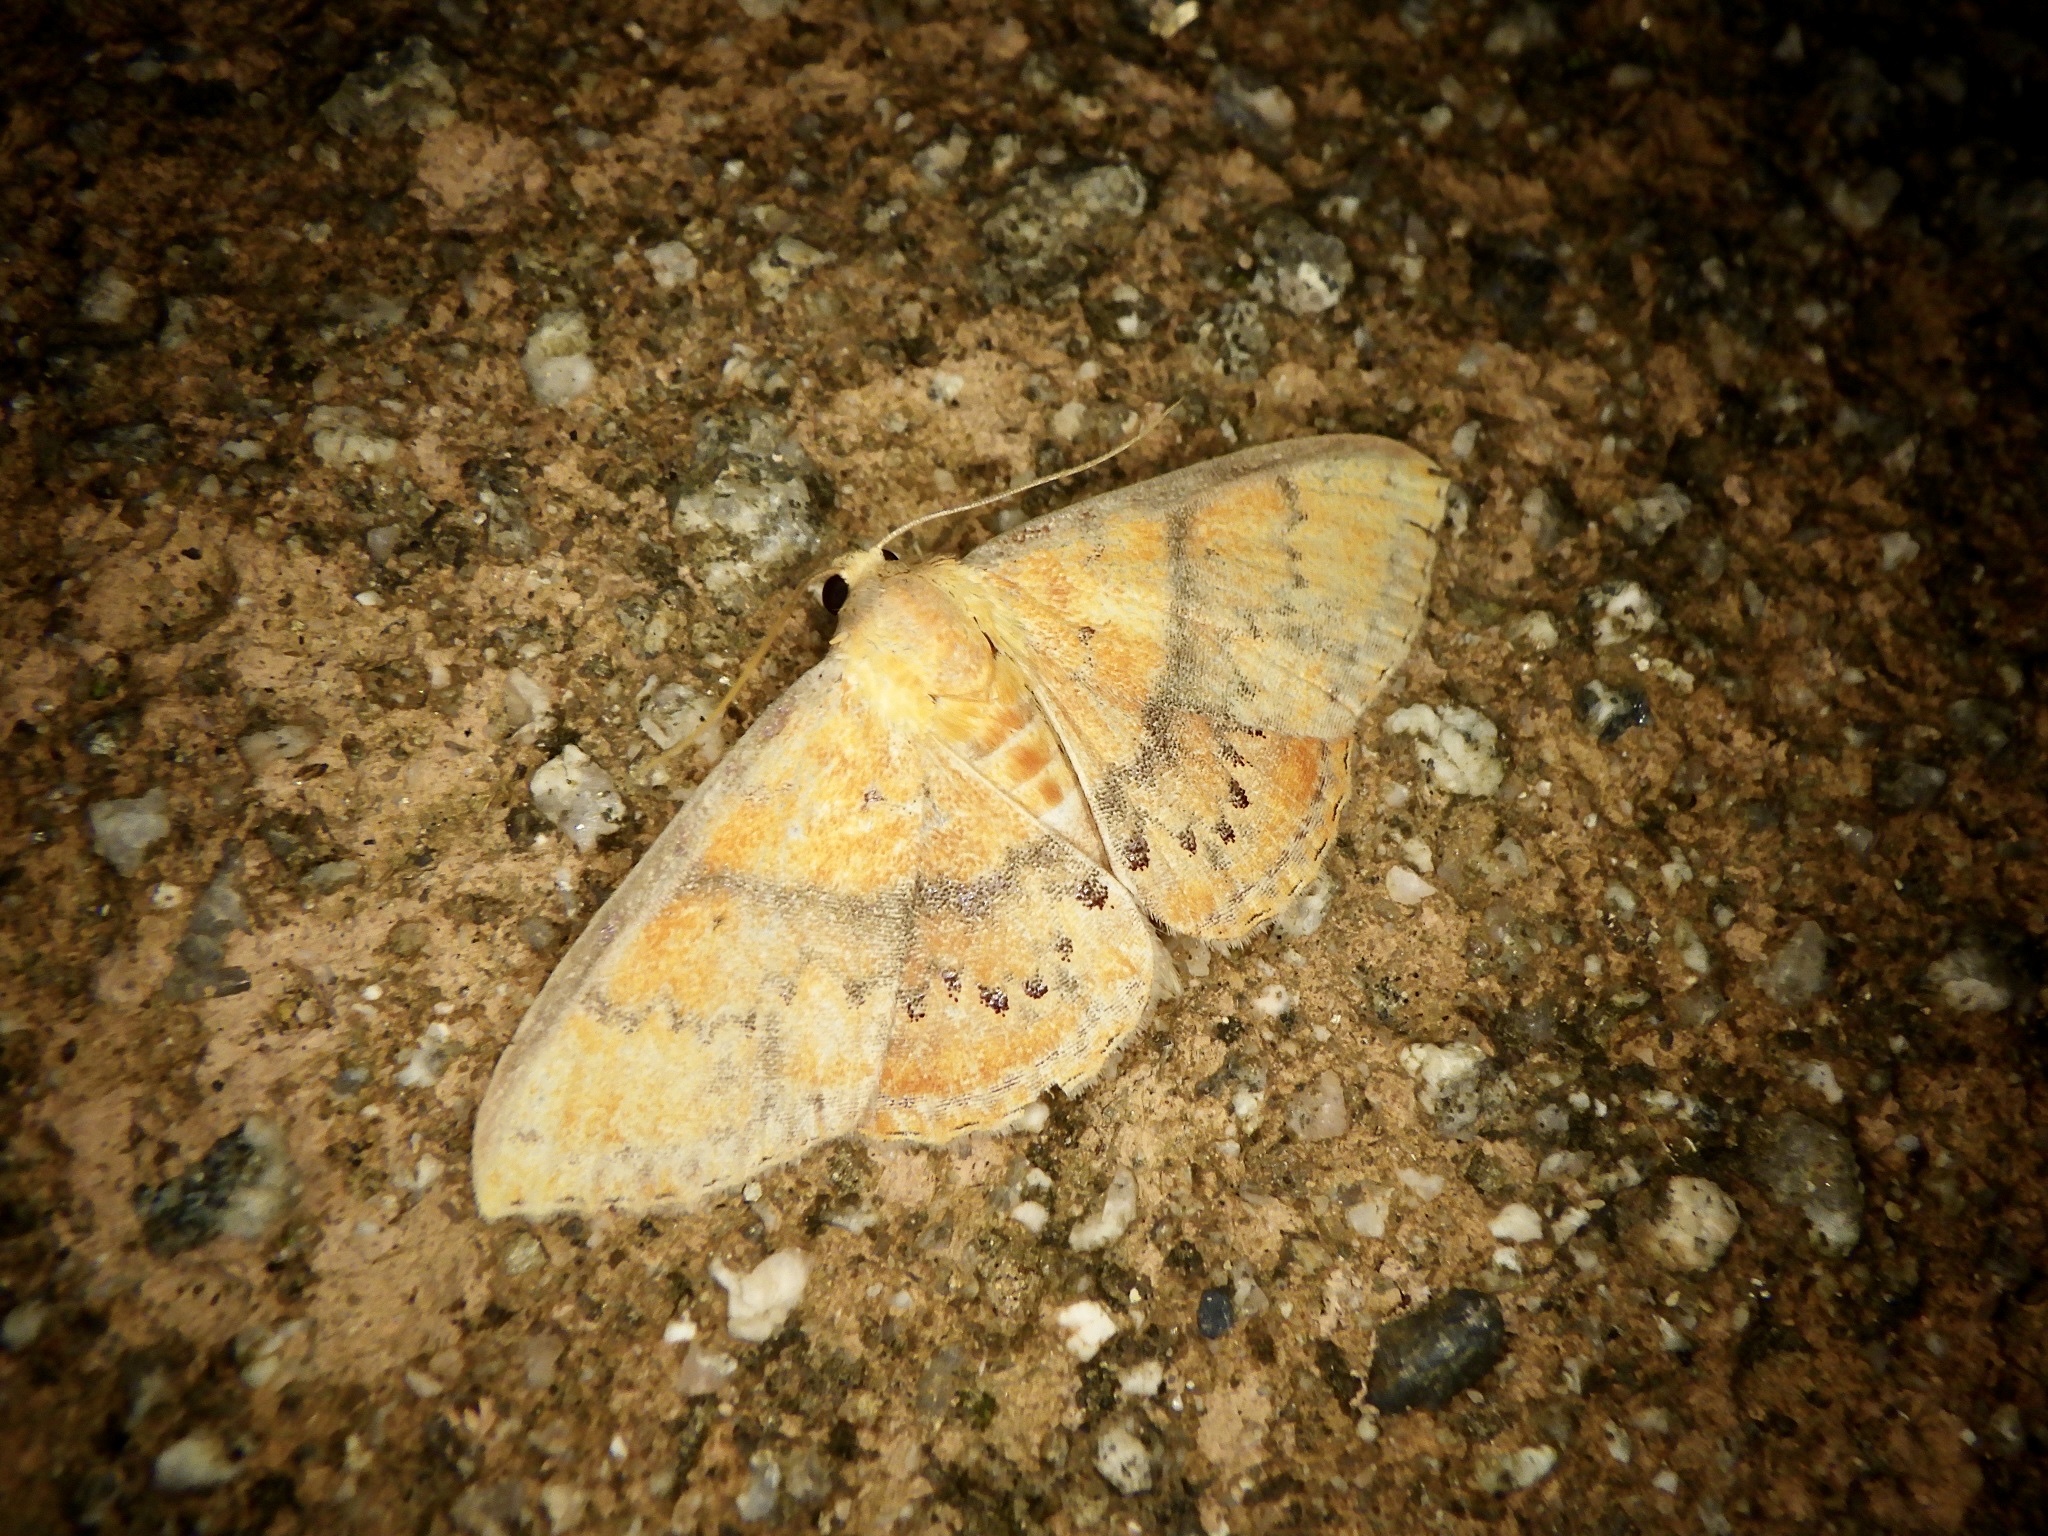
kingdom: Animalia
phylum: Arthropoda
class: Insecta
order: Lepidoptera
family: Erebidae
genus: Homodes
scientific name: Homodes vivida
